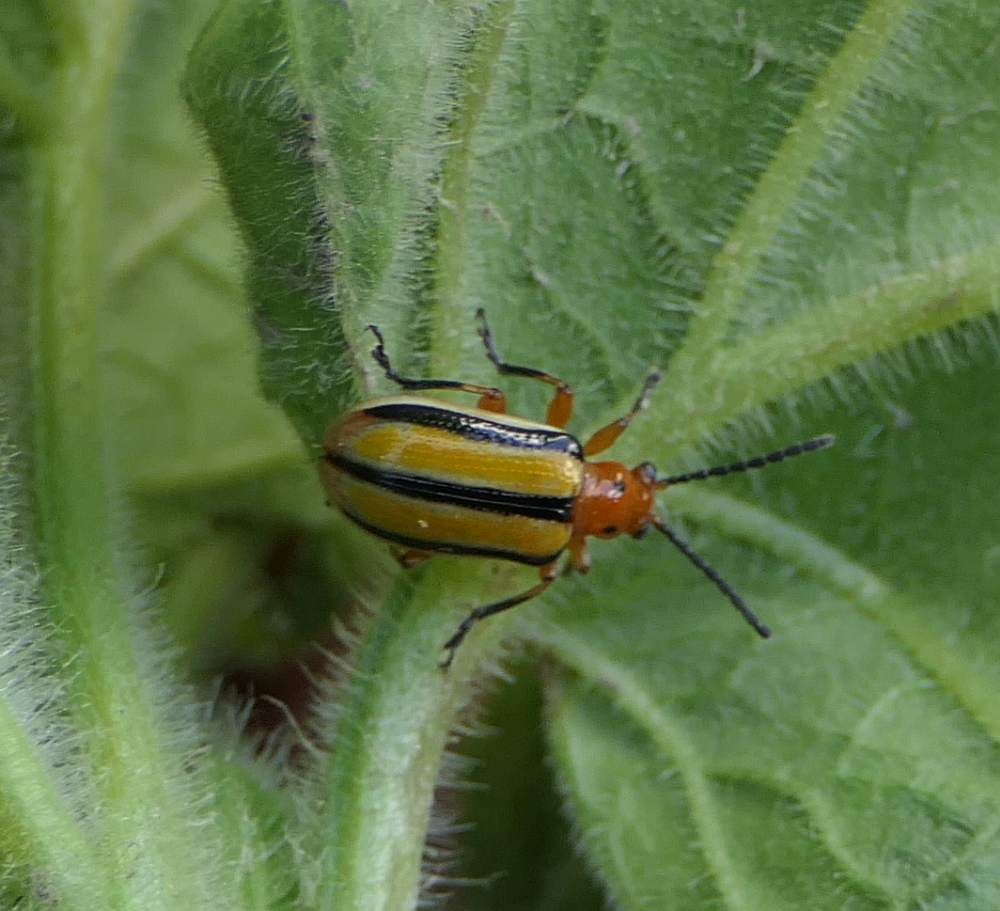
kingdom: Animalia
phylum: Arthropoda
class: Insecta
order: Coleoptera
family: Chrysomelidae
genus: Lema
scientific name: Lema daturaphila
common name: Leaf beetle
